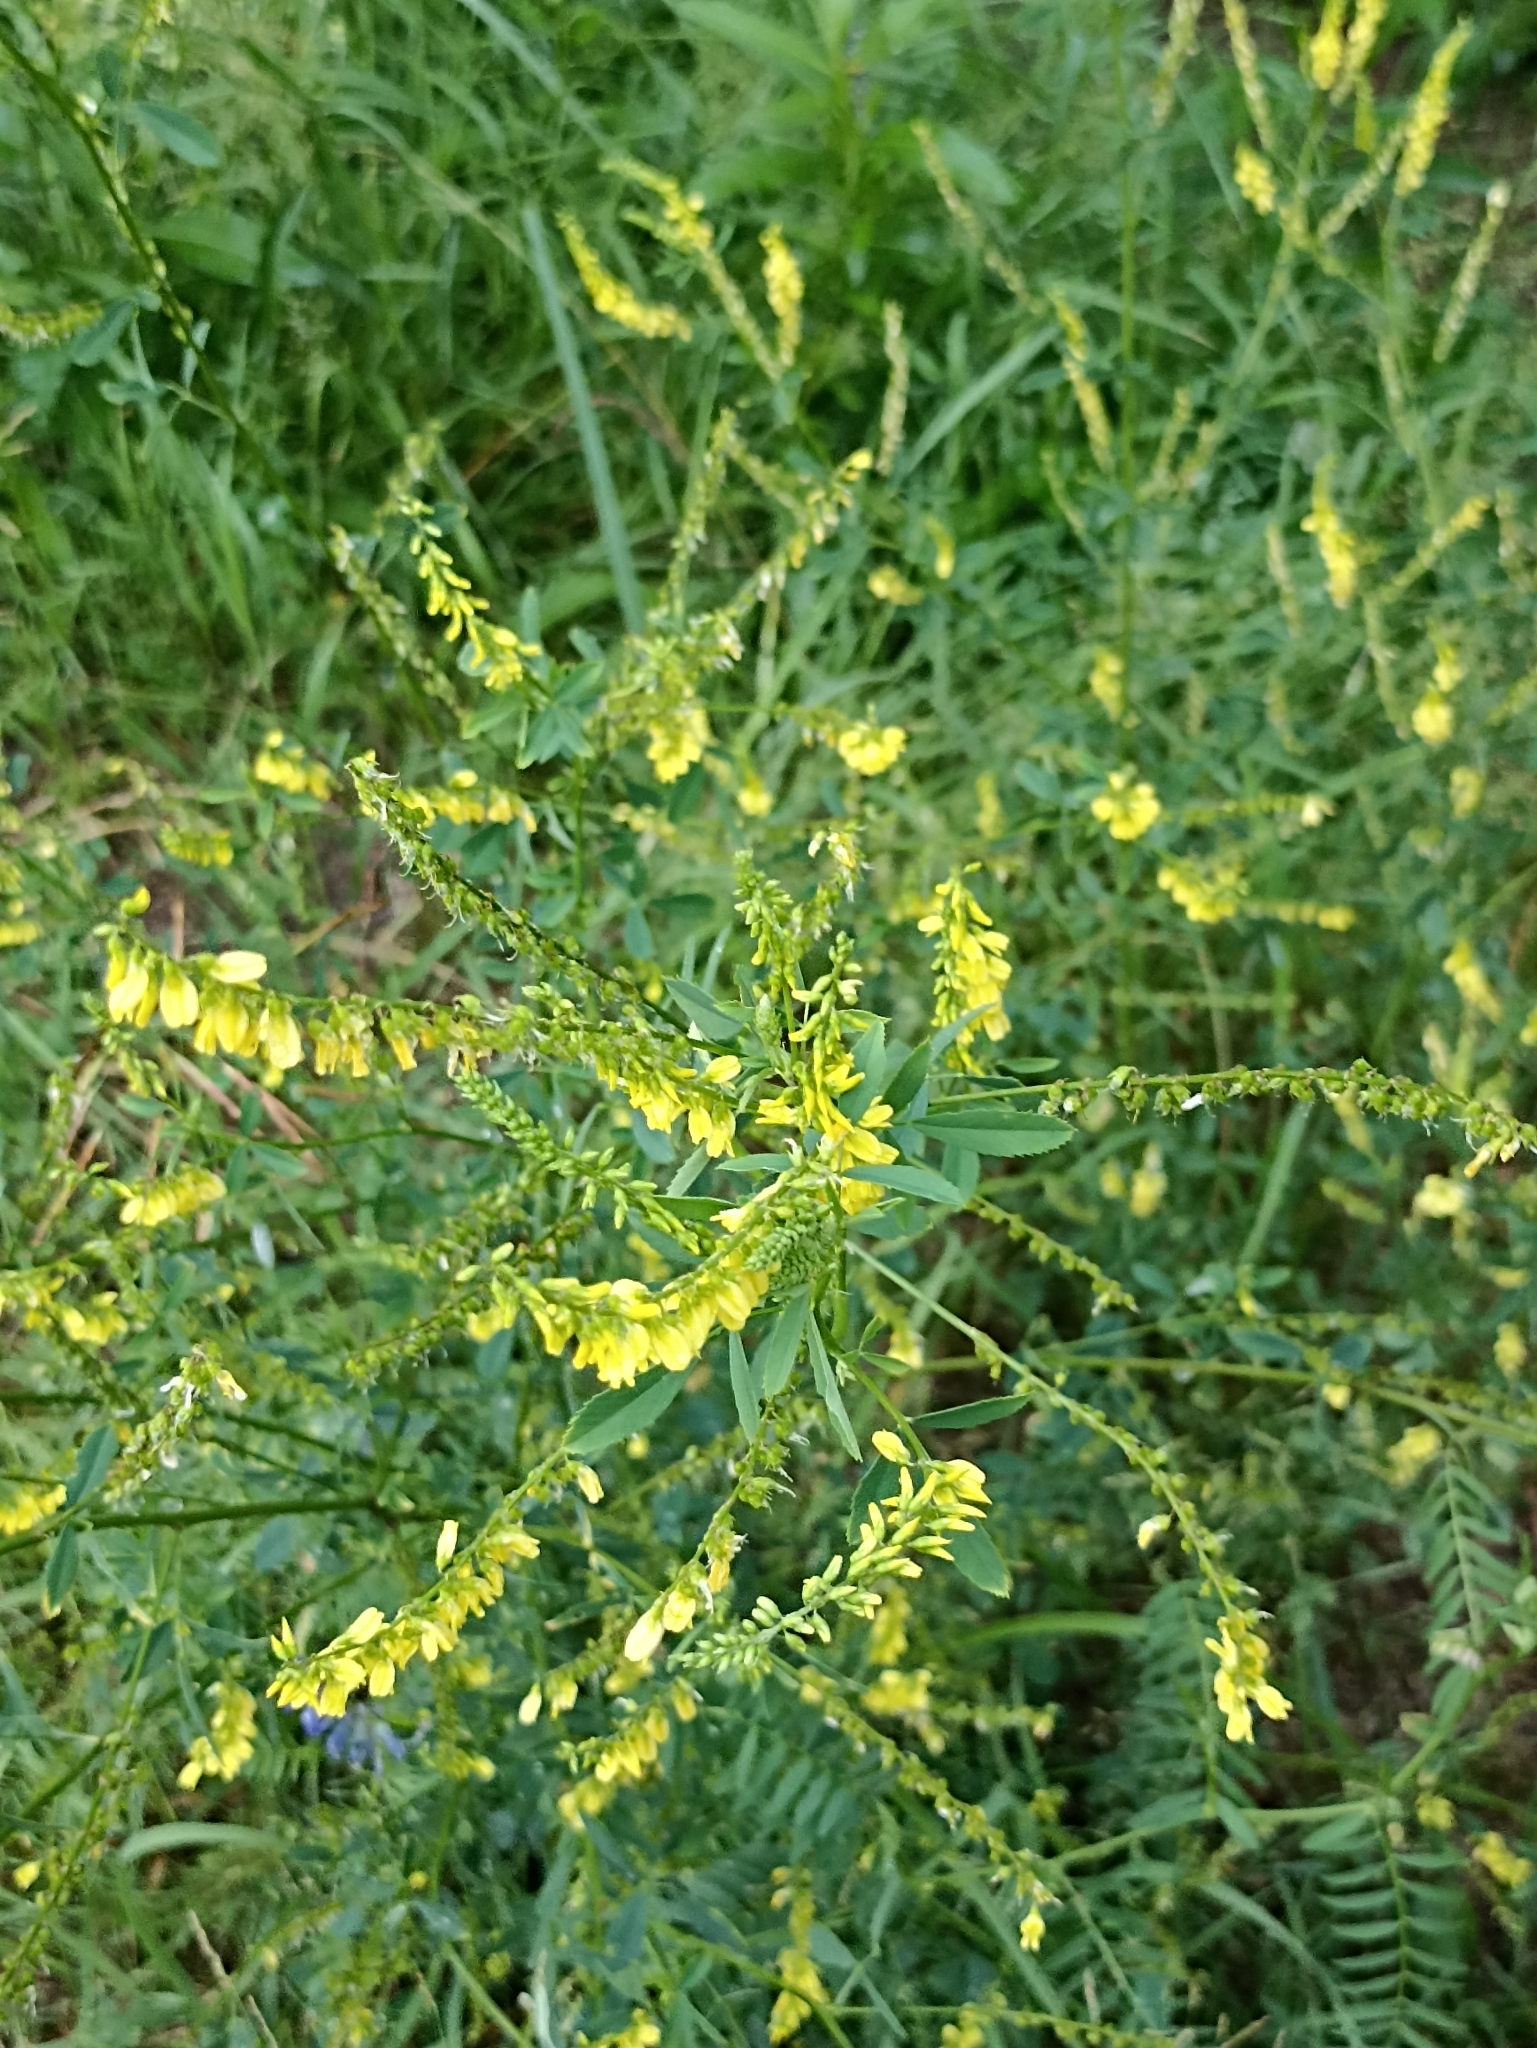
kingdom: Plantae
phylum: Tracheophyta
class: Magnoliopsida
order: Fabales
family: Fabaceae
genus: Melilotus
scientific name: Melilotus officinalis
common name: Sweetclover
